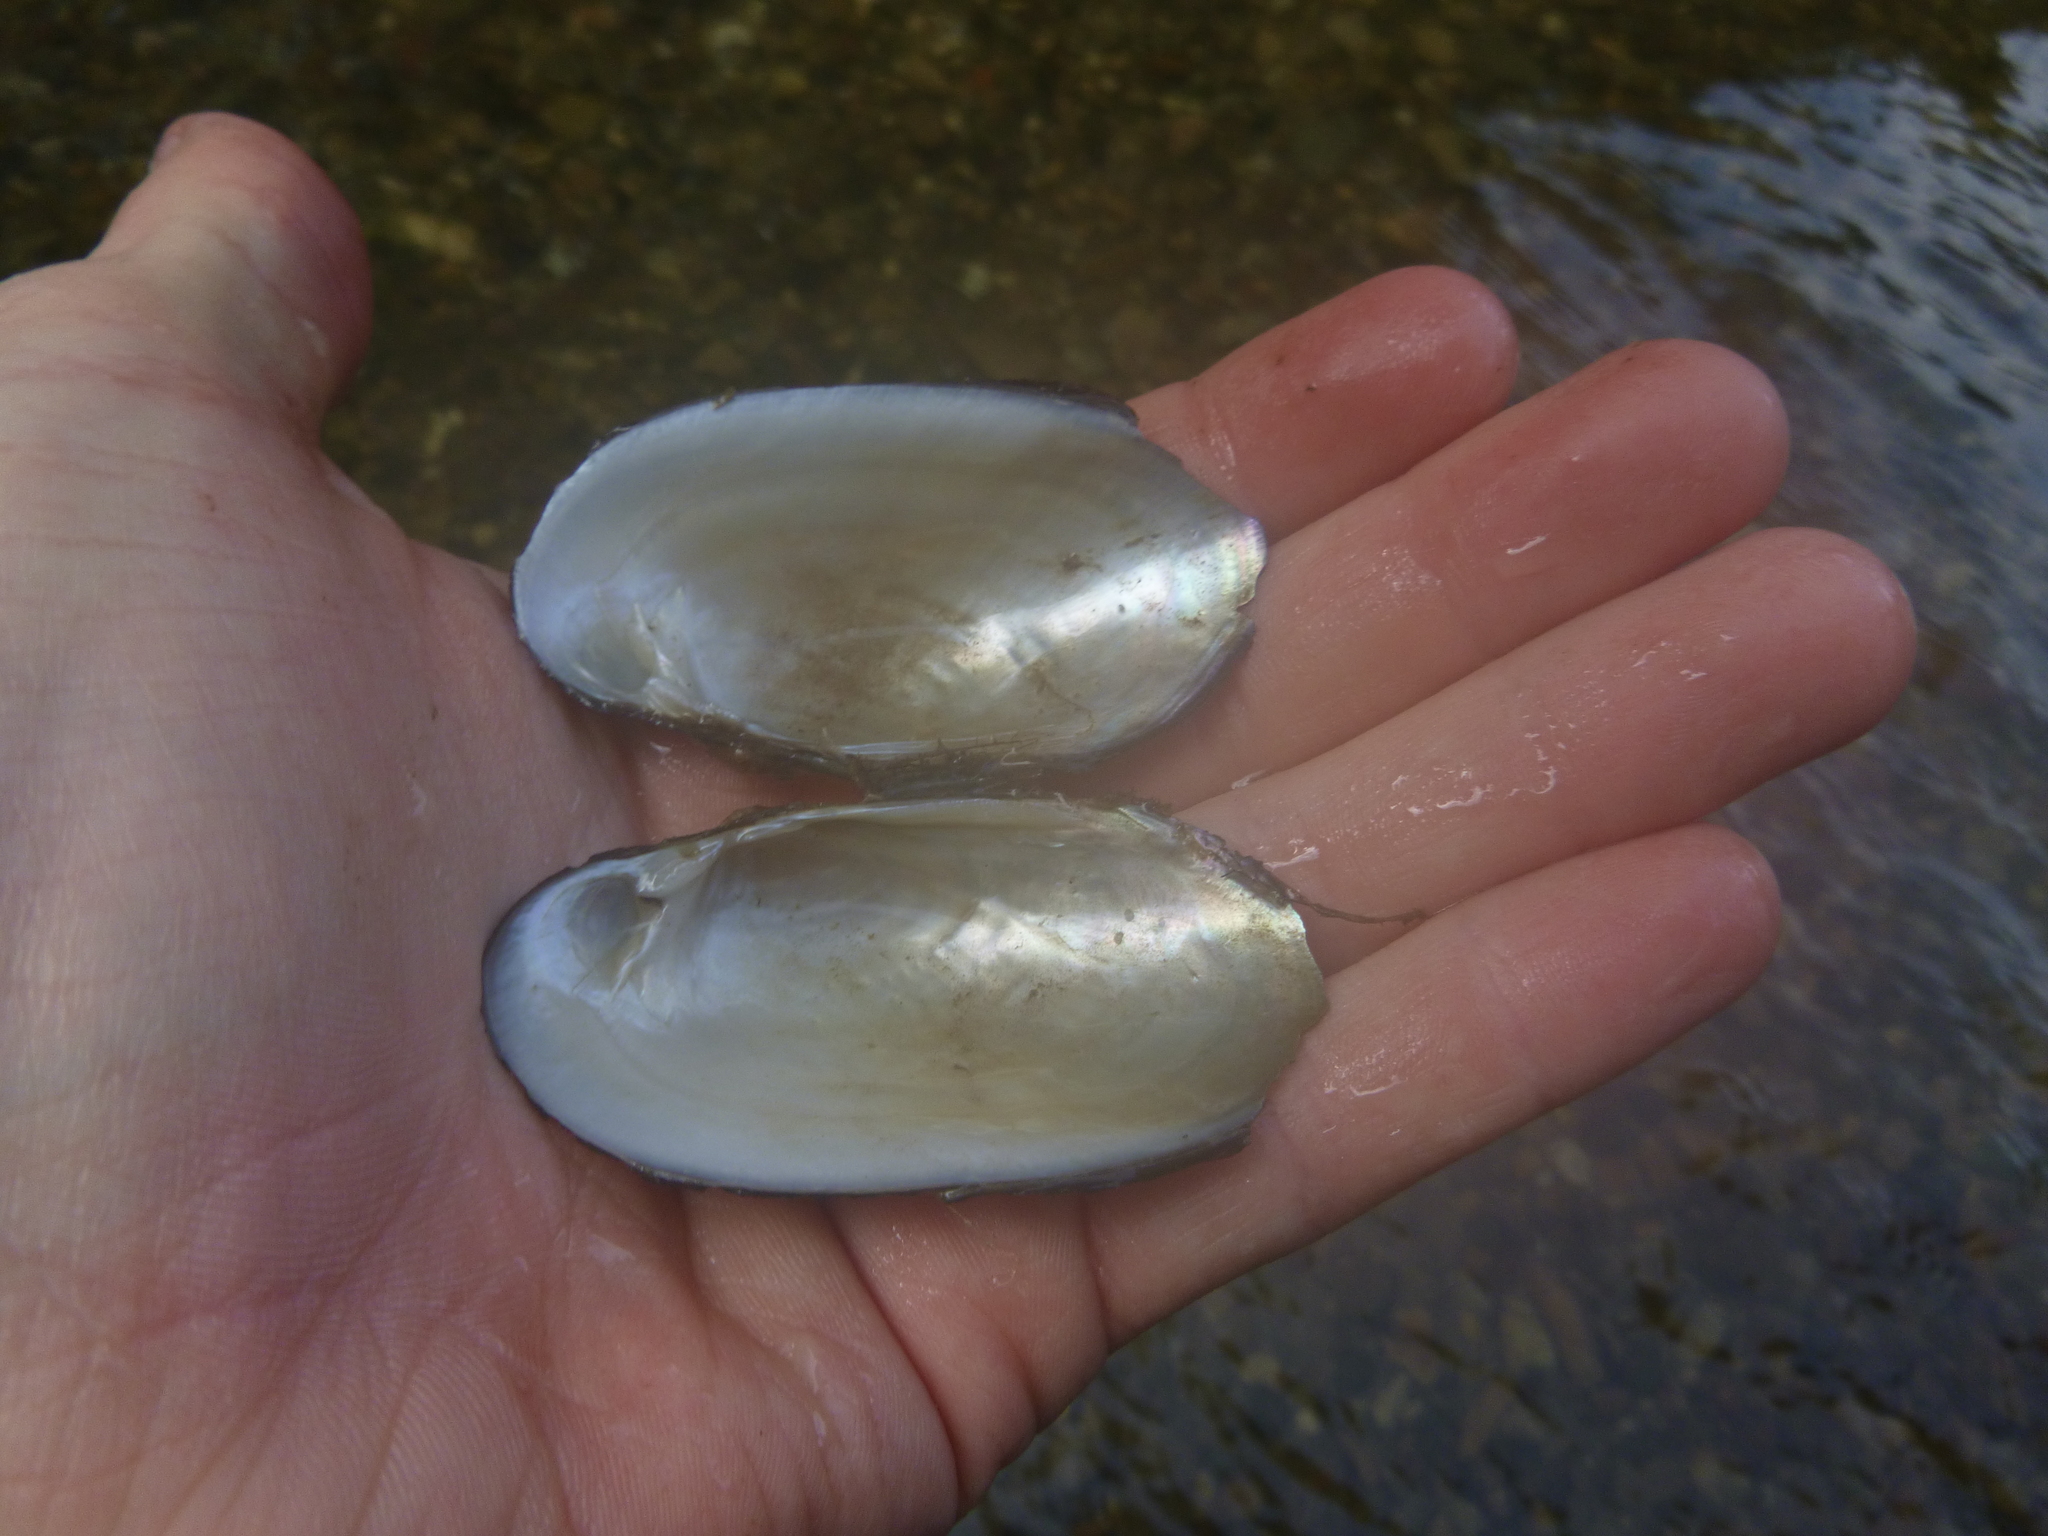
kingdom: Animalia
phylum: Mollusca
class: Bivalvia
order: Unionida
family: Unionidae
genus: Unio
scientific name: Unio crassus
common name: Thick shelled river mussel
